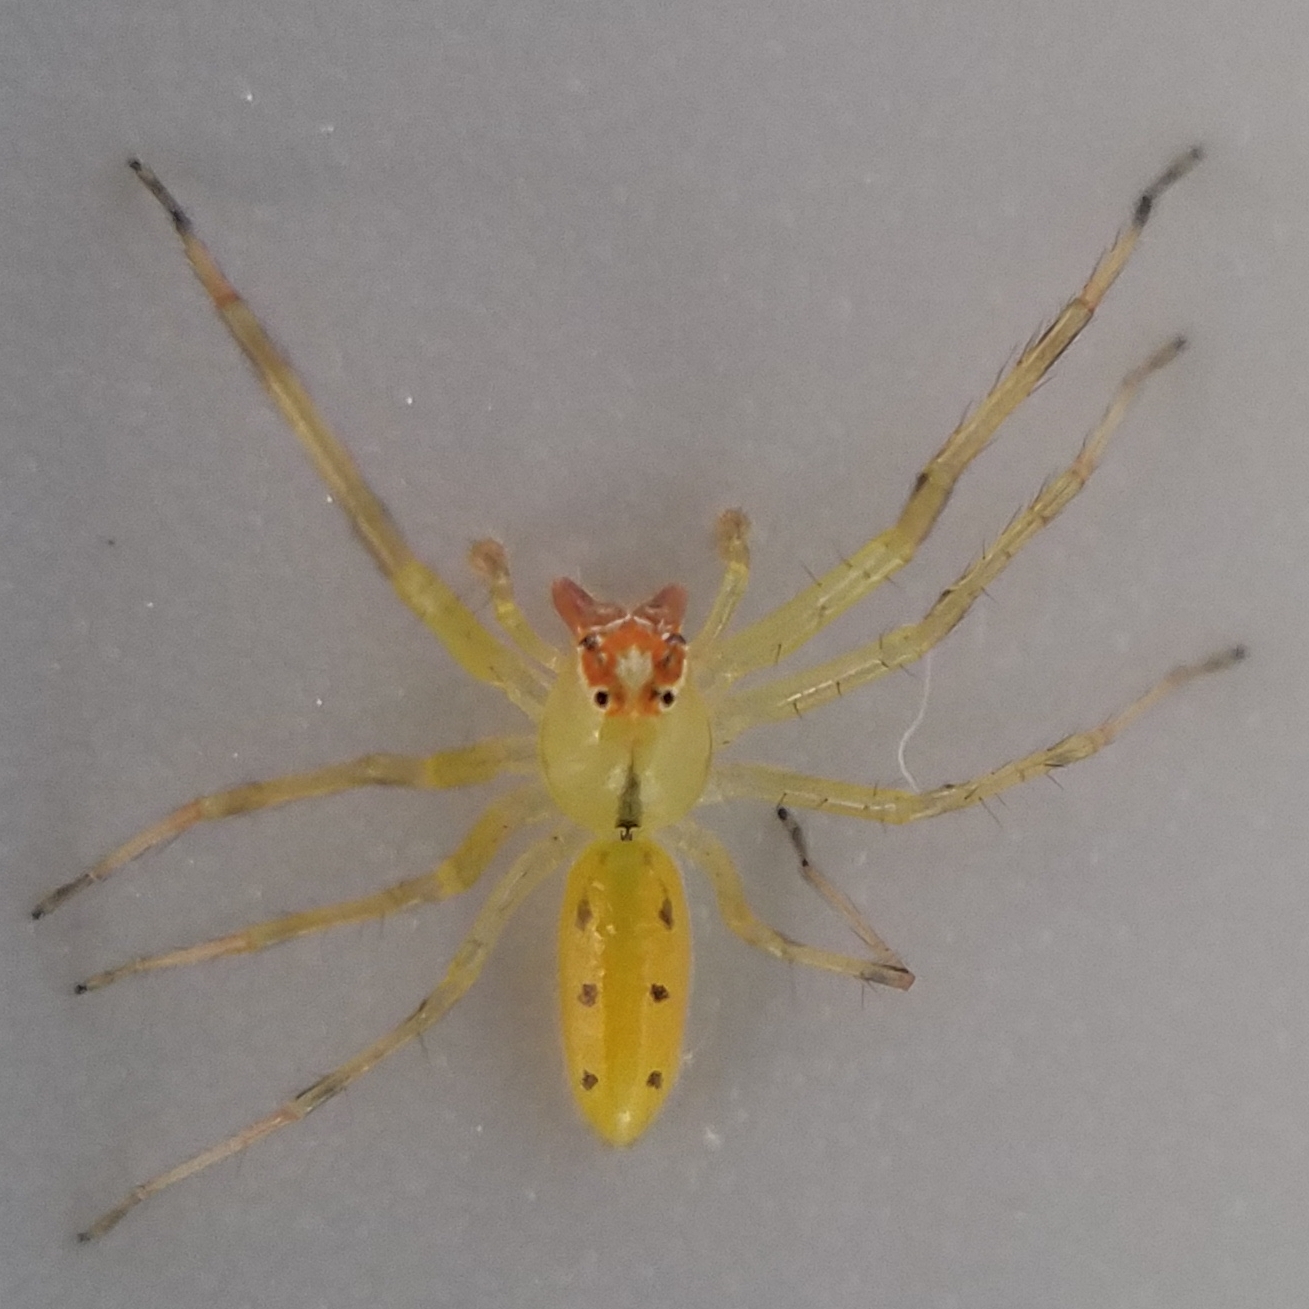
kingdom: Animalia
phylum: Arthropoda
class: Arachnida
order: Araneae
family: Salticidae
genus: Lyssomanes
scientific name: Lyssomanes viridis
